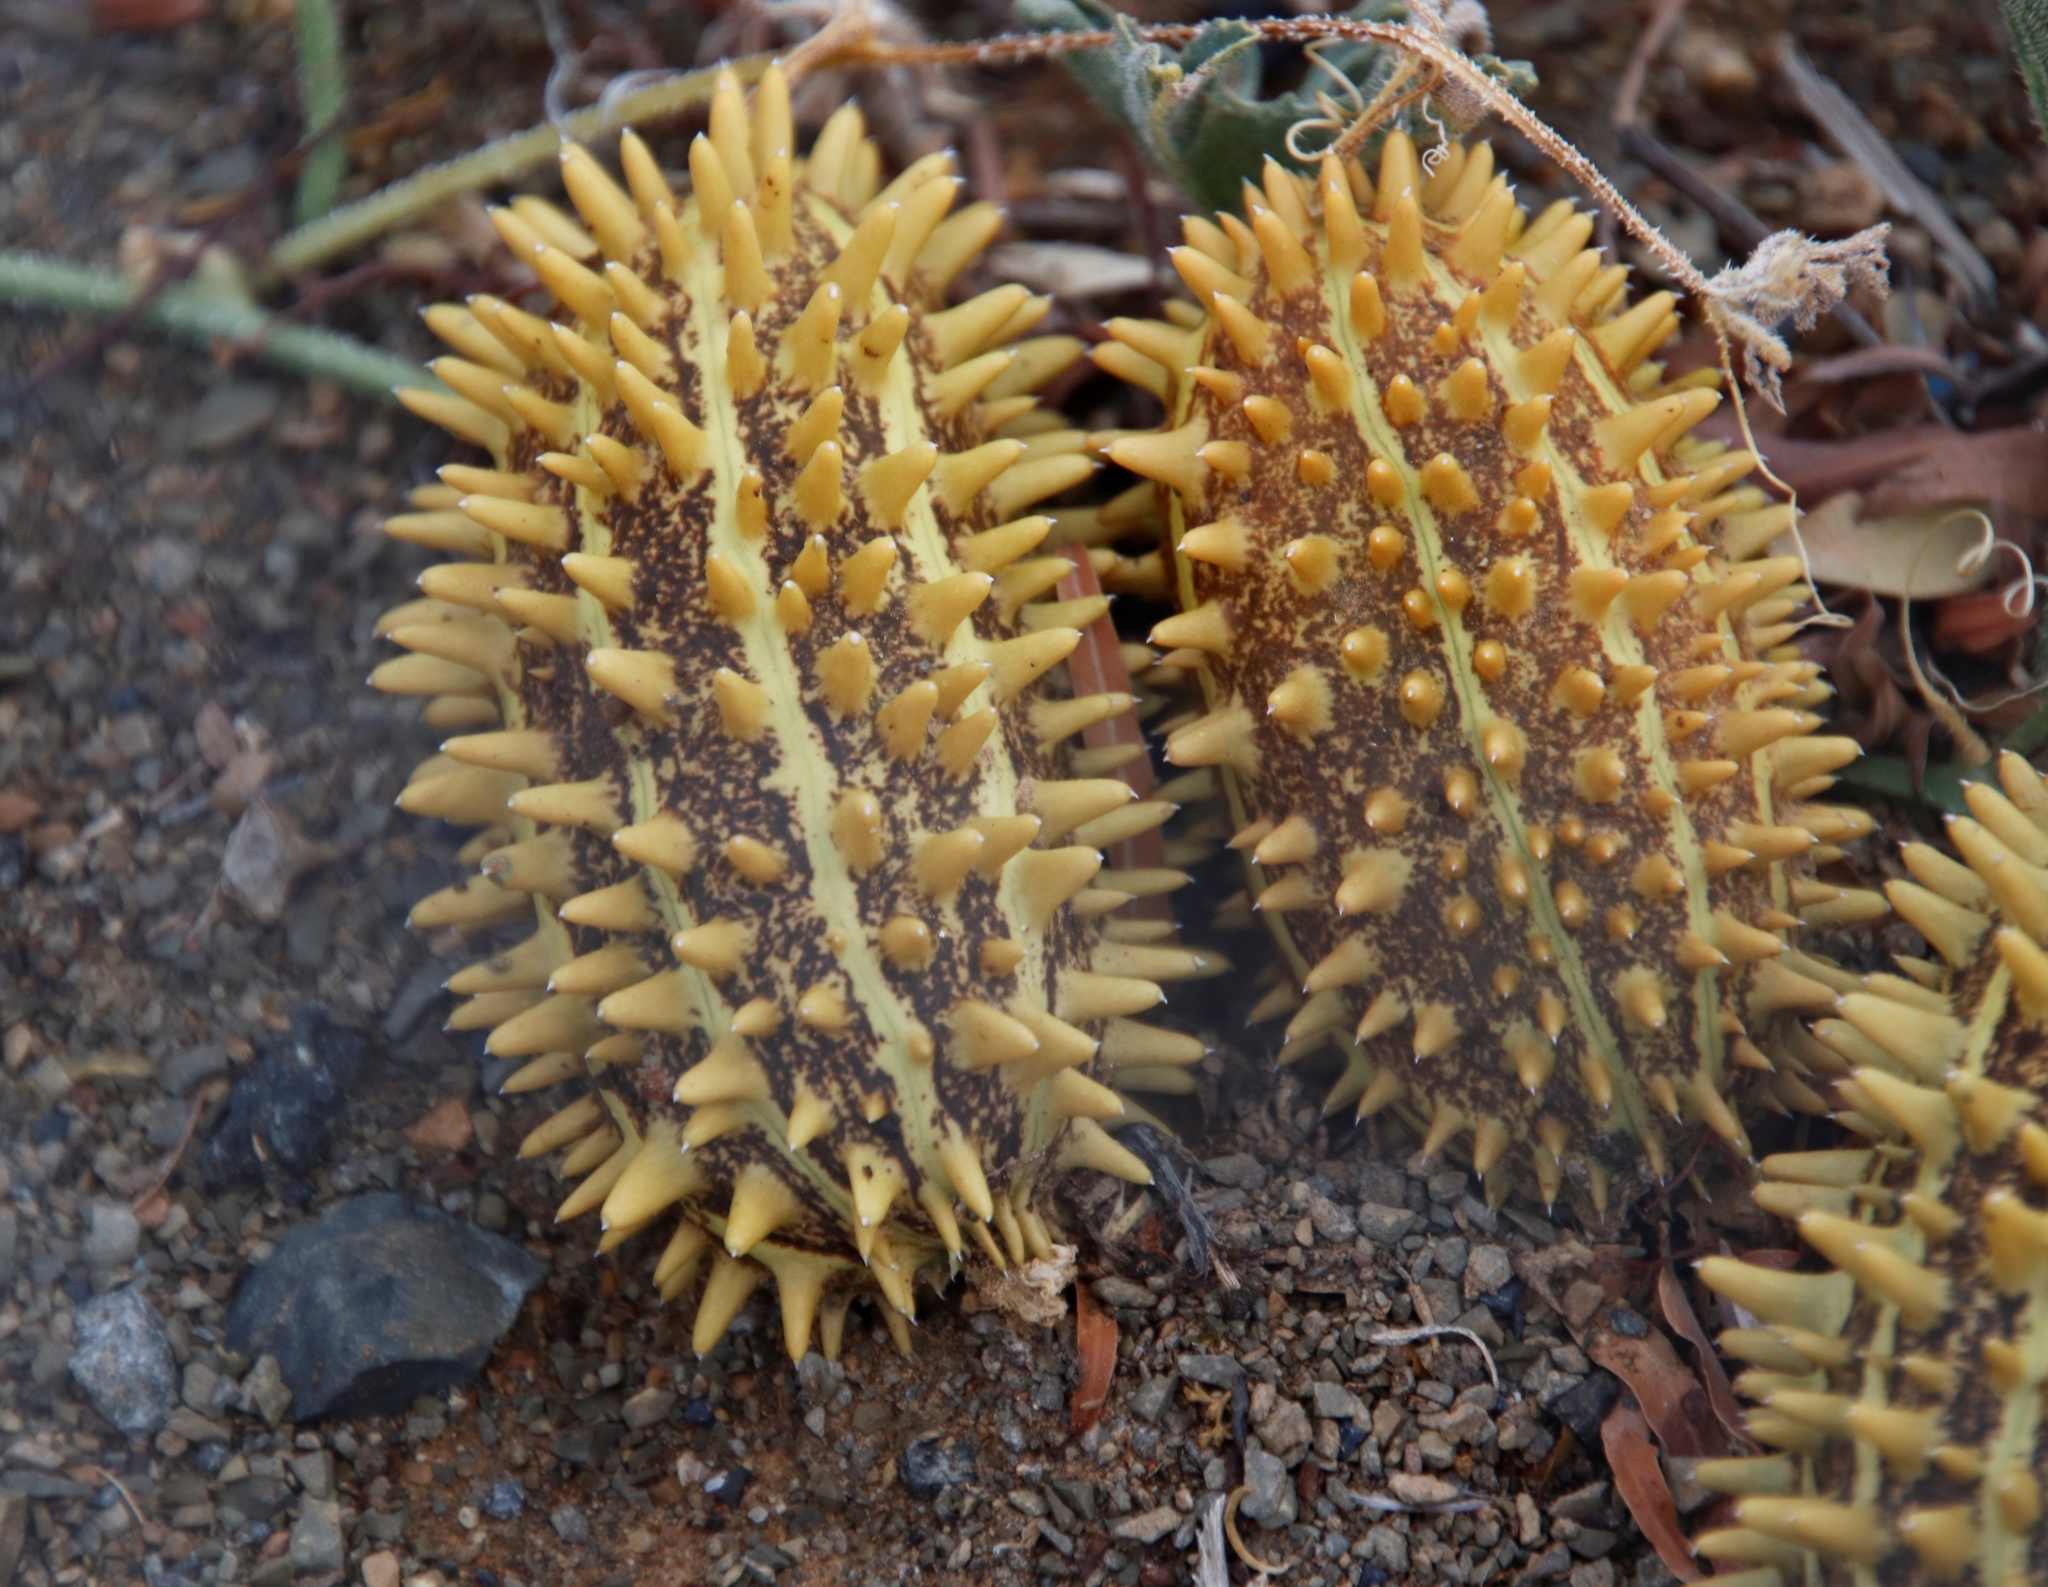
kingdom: Plantae
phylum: Tracheophyta
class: Magnoliopsida
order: Cucurbitales
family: Cucurbitaceae
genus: Cucumis
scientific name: Cucumis africanus
